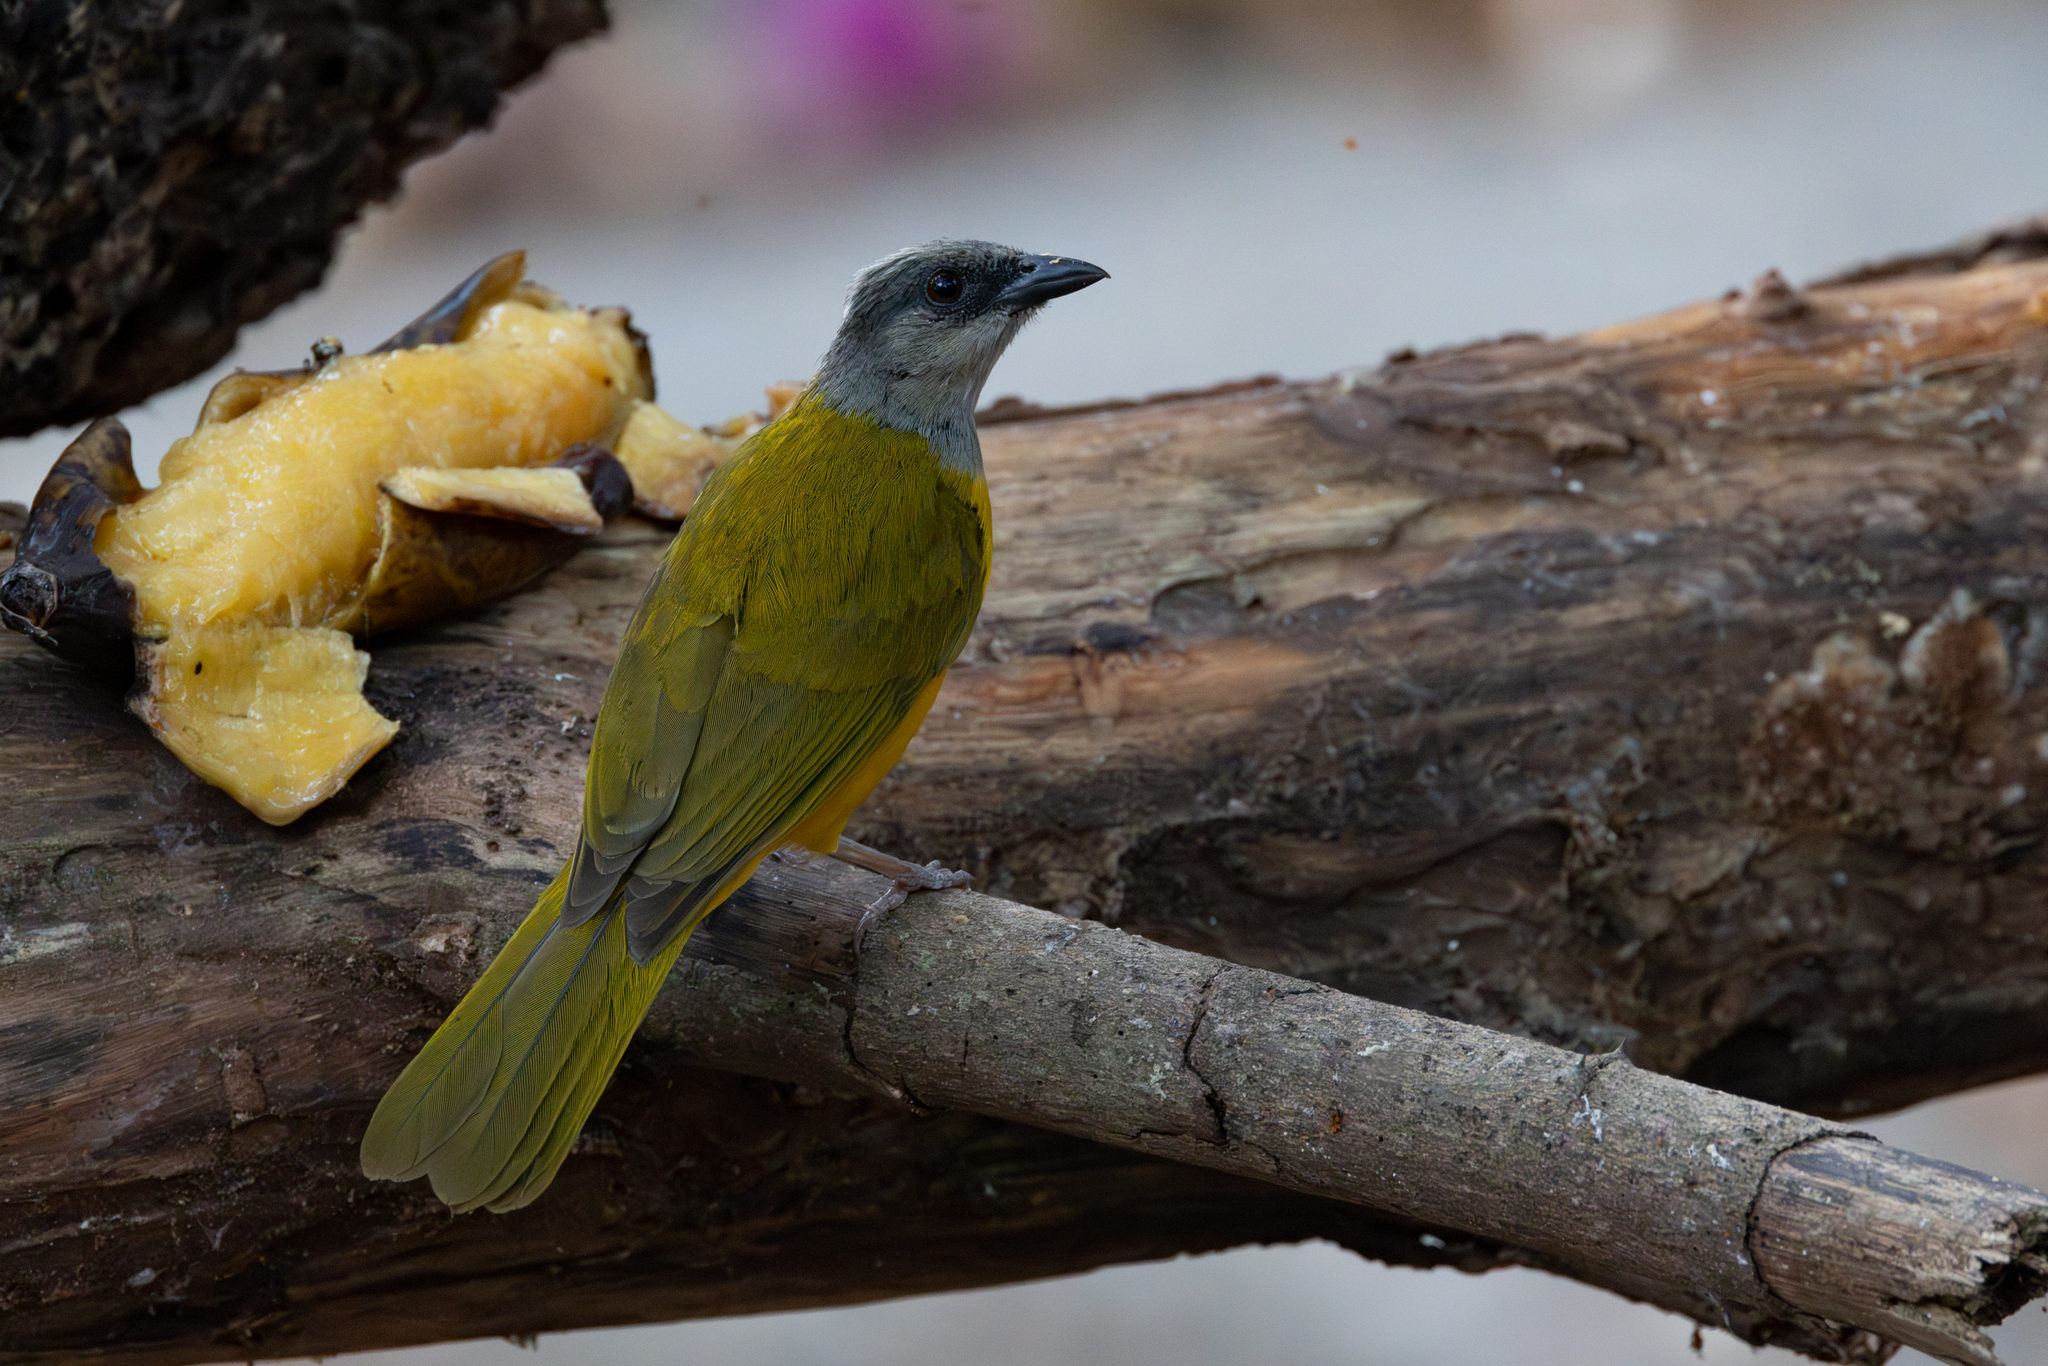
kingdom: Animalia
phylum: Chordata
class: Aves
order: Passeriformes
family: Thraupidae
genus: Eucometis
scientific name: Eucometis penicillata
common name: Grey-headed tanager
